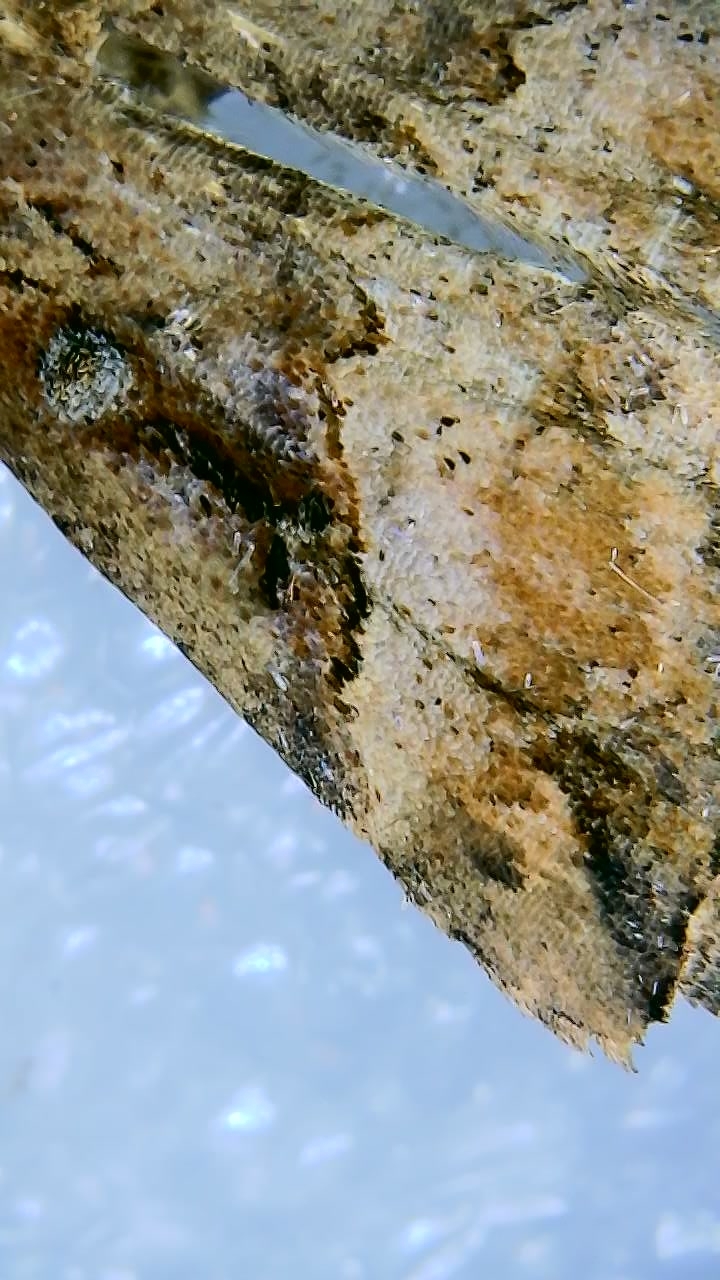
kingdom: Animalia
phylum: Arthropoda
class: Insecta
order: Lepidoptera
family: Erebidae
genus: Hypena
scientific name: Hypena rostralis
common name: Buttoned snout
